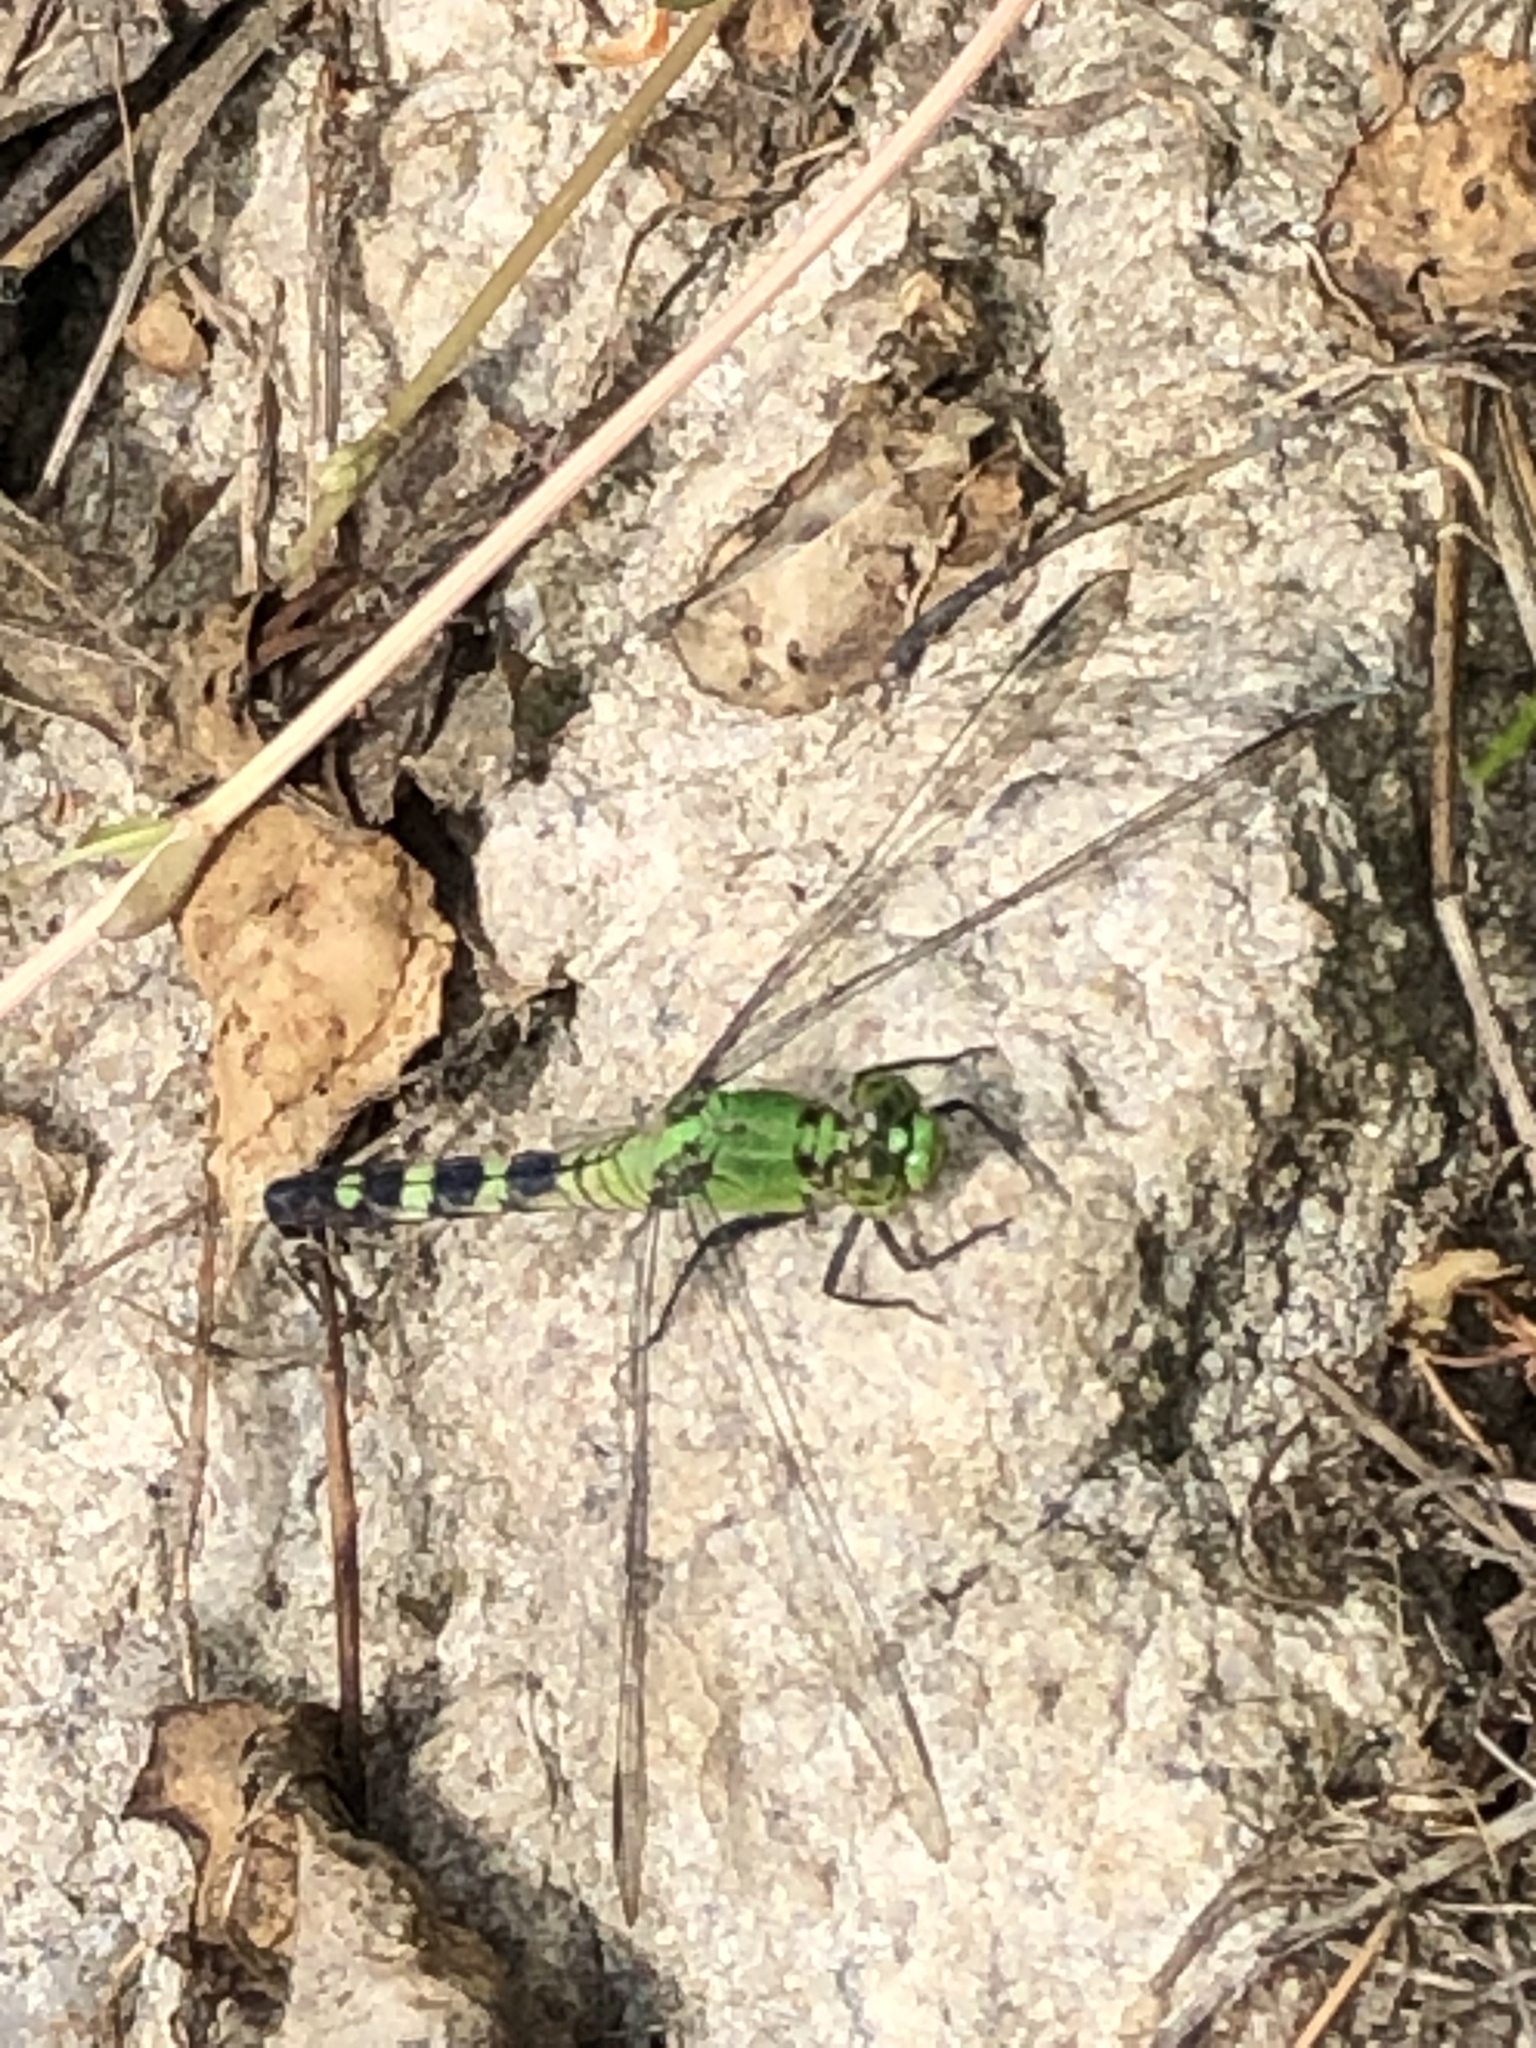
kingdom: Animalia
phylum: Arthropoda
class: Insecta
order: Odonata
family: Libellulidae
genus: Erythemis
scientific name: Erythemis simplicicollis
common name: Eastern pondhawk
